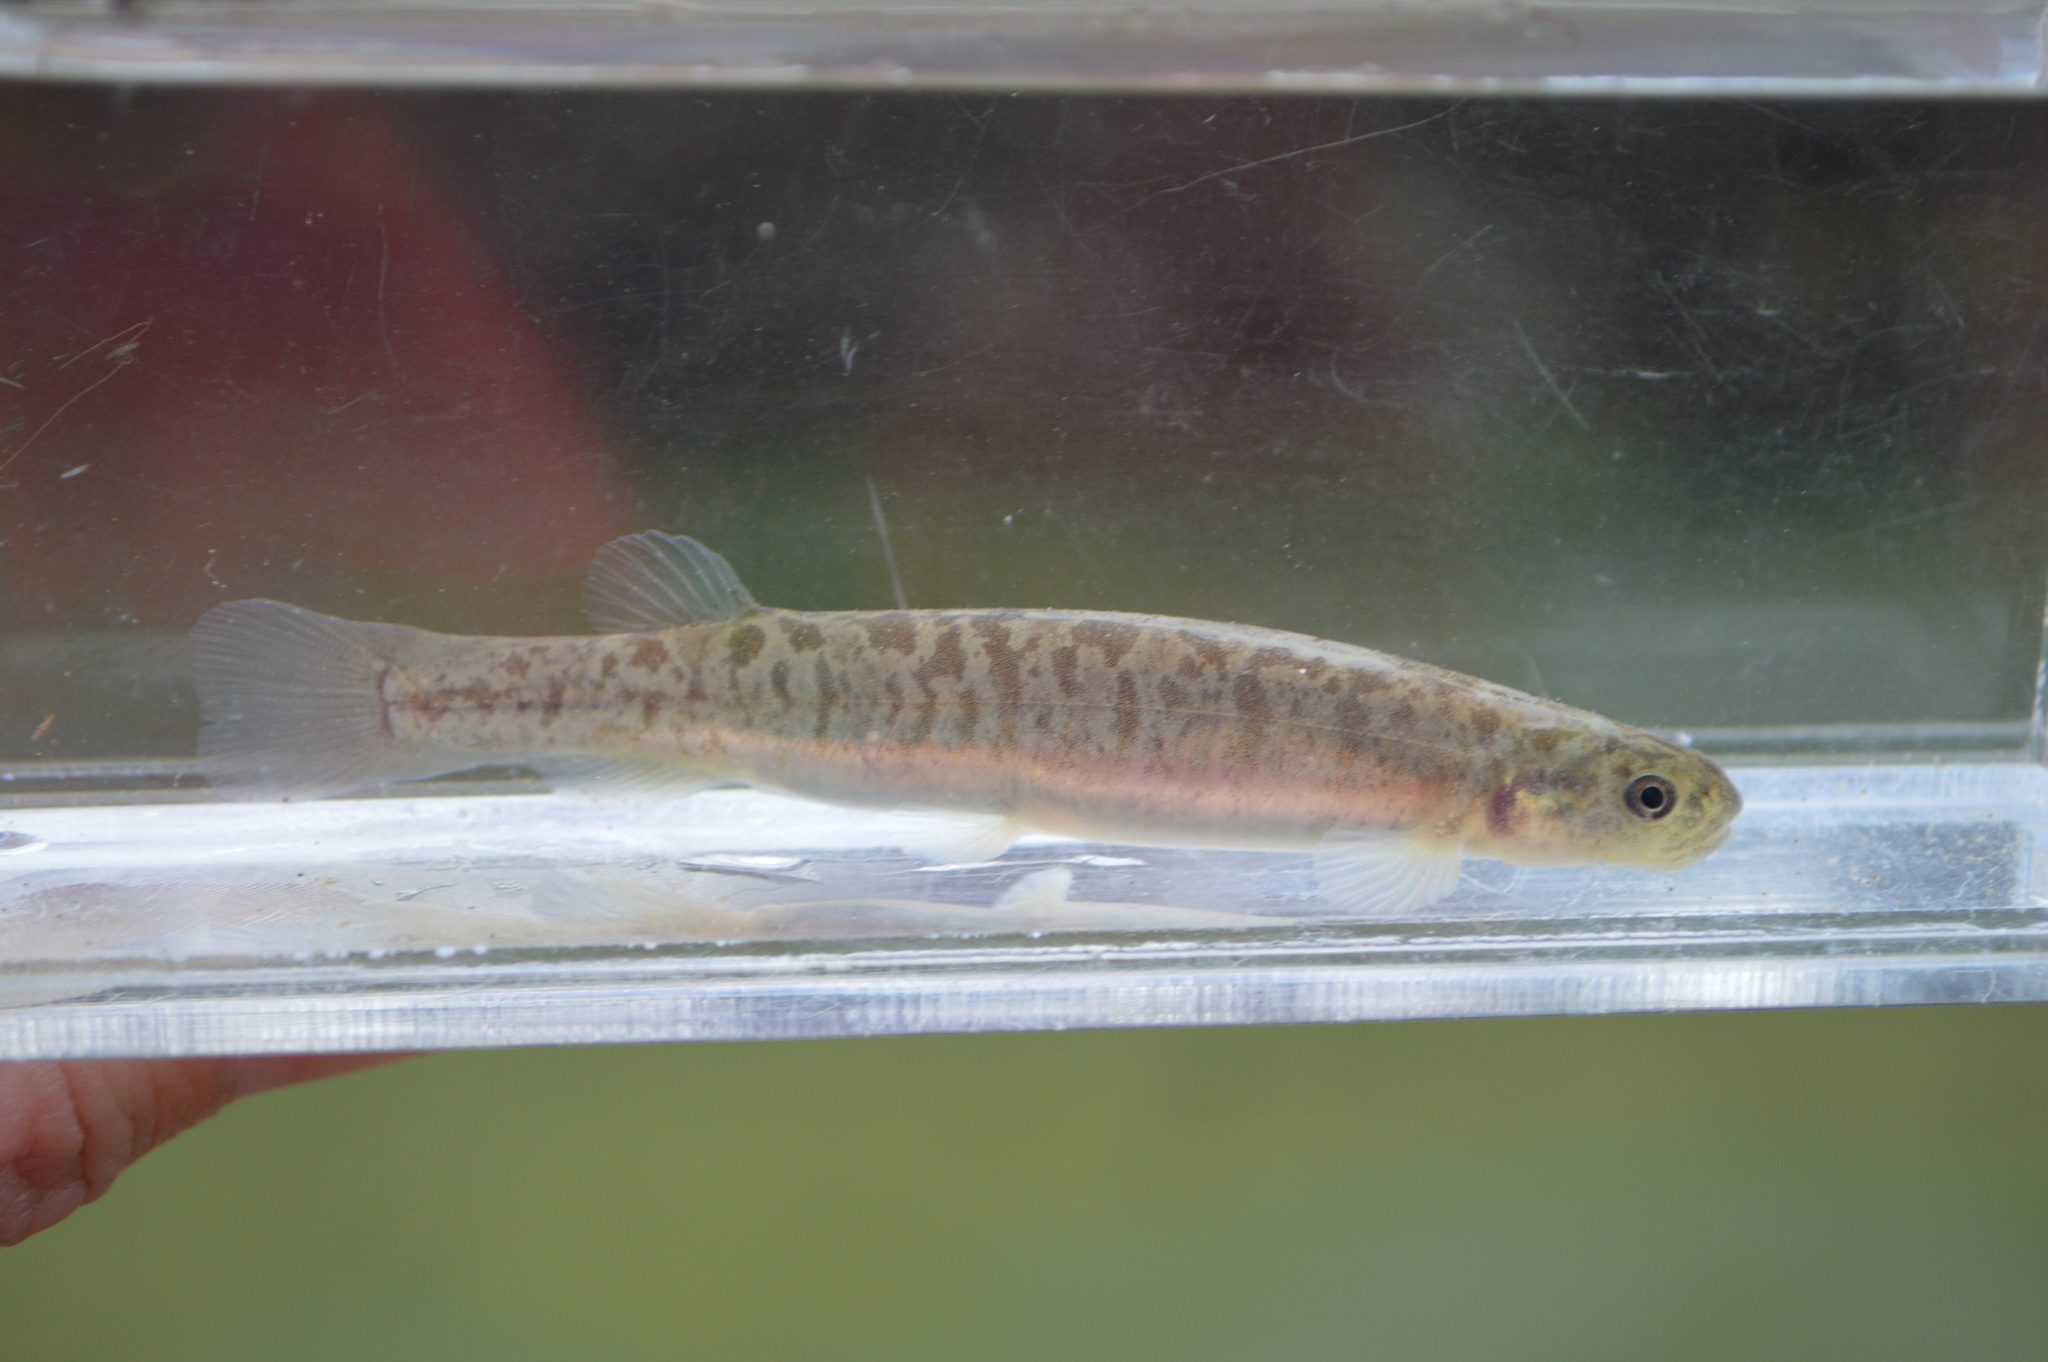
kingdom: Animalia
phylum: Chordata
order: Osmeriformes
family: Galaxiidae
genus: Galaxias
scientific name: Galaxias anomalus
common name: Central otago roundhead galaxias
